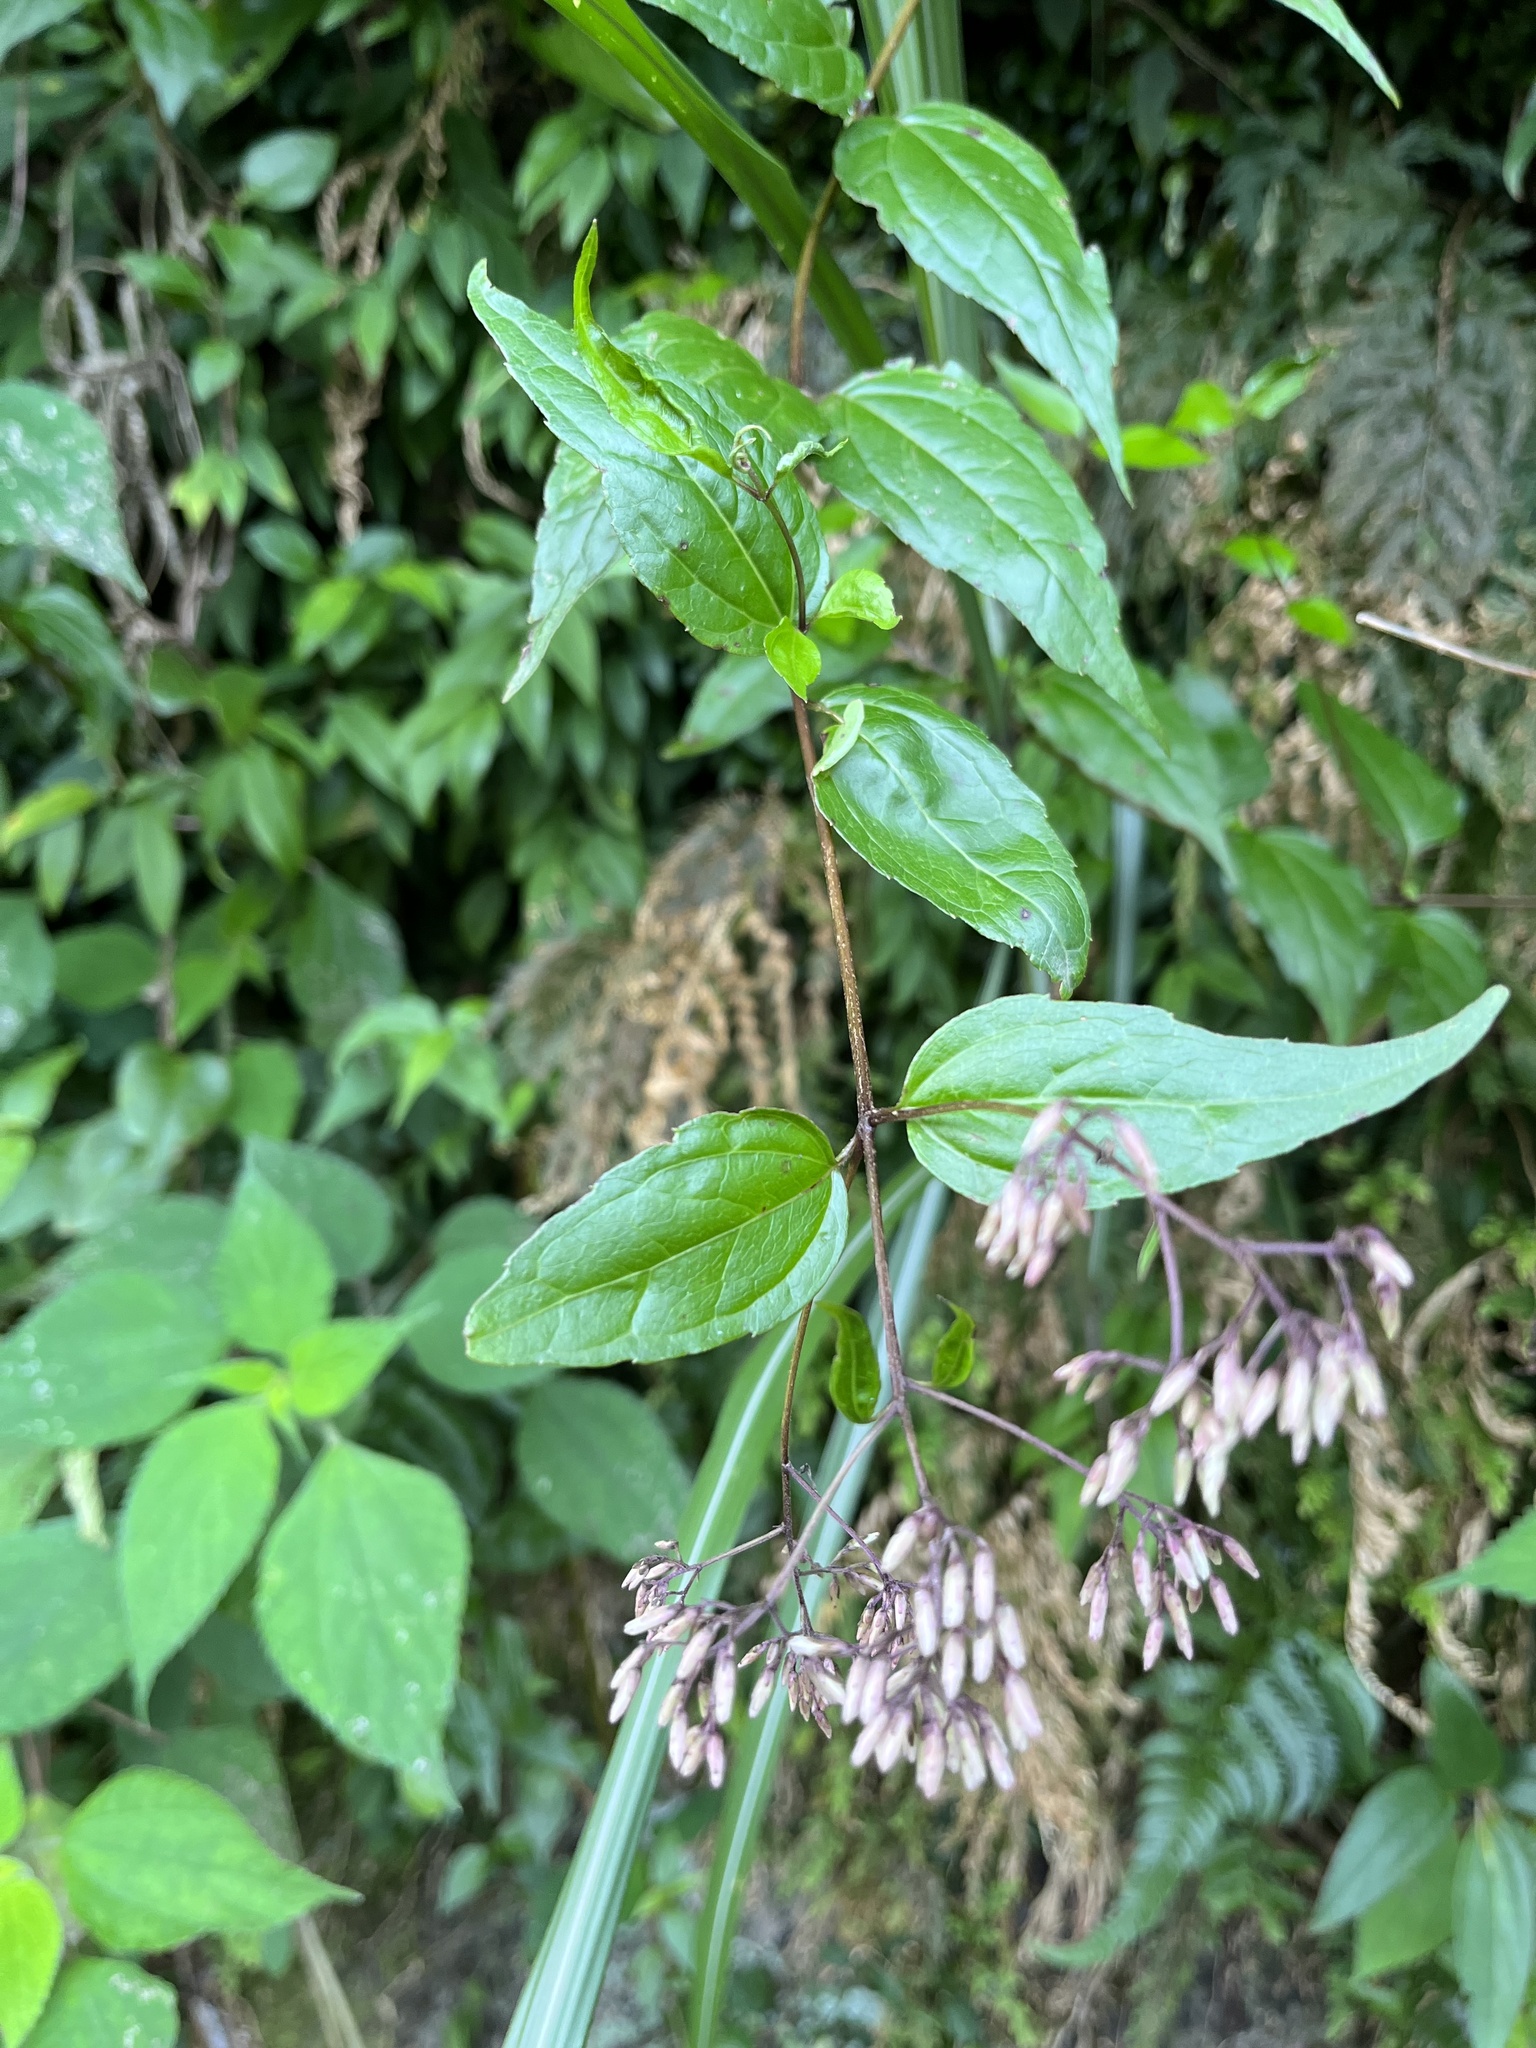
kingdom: Plantae
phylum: Tracheophyta
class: Magnoliopsida
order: Asterales
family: Asteraceae
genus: Eupatorium
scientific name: Eupatorium tashiroi
